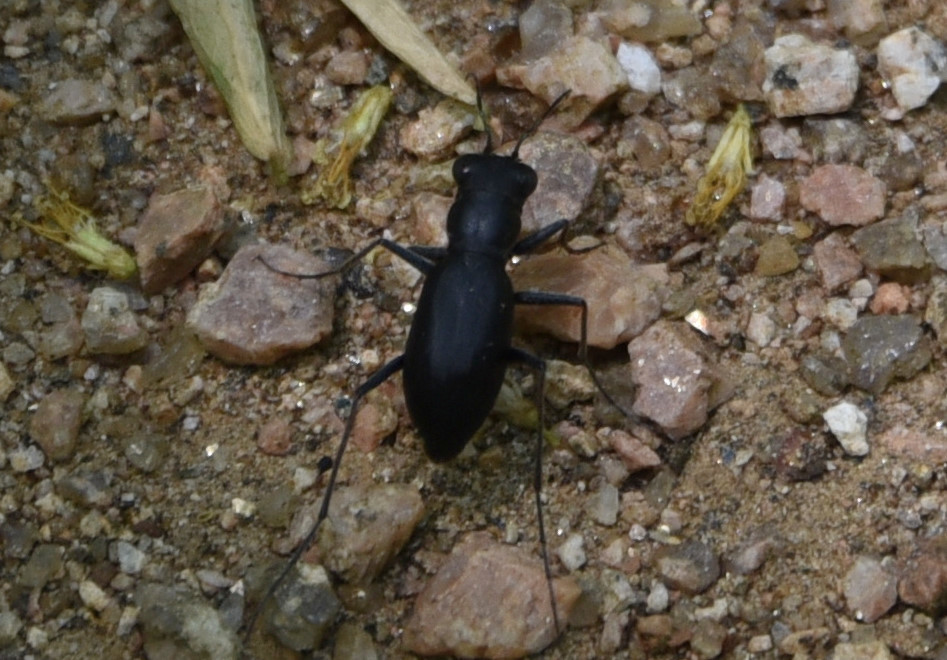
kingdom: Animalia
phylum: Arthropoda
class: Insecta
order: Coleoptera
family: Carabidae
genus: Dromochorus
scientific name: Dromochorus belfragei
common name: Loamy-ground dromo tiger beetle
